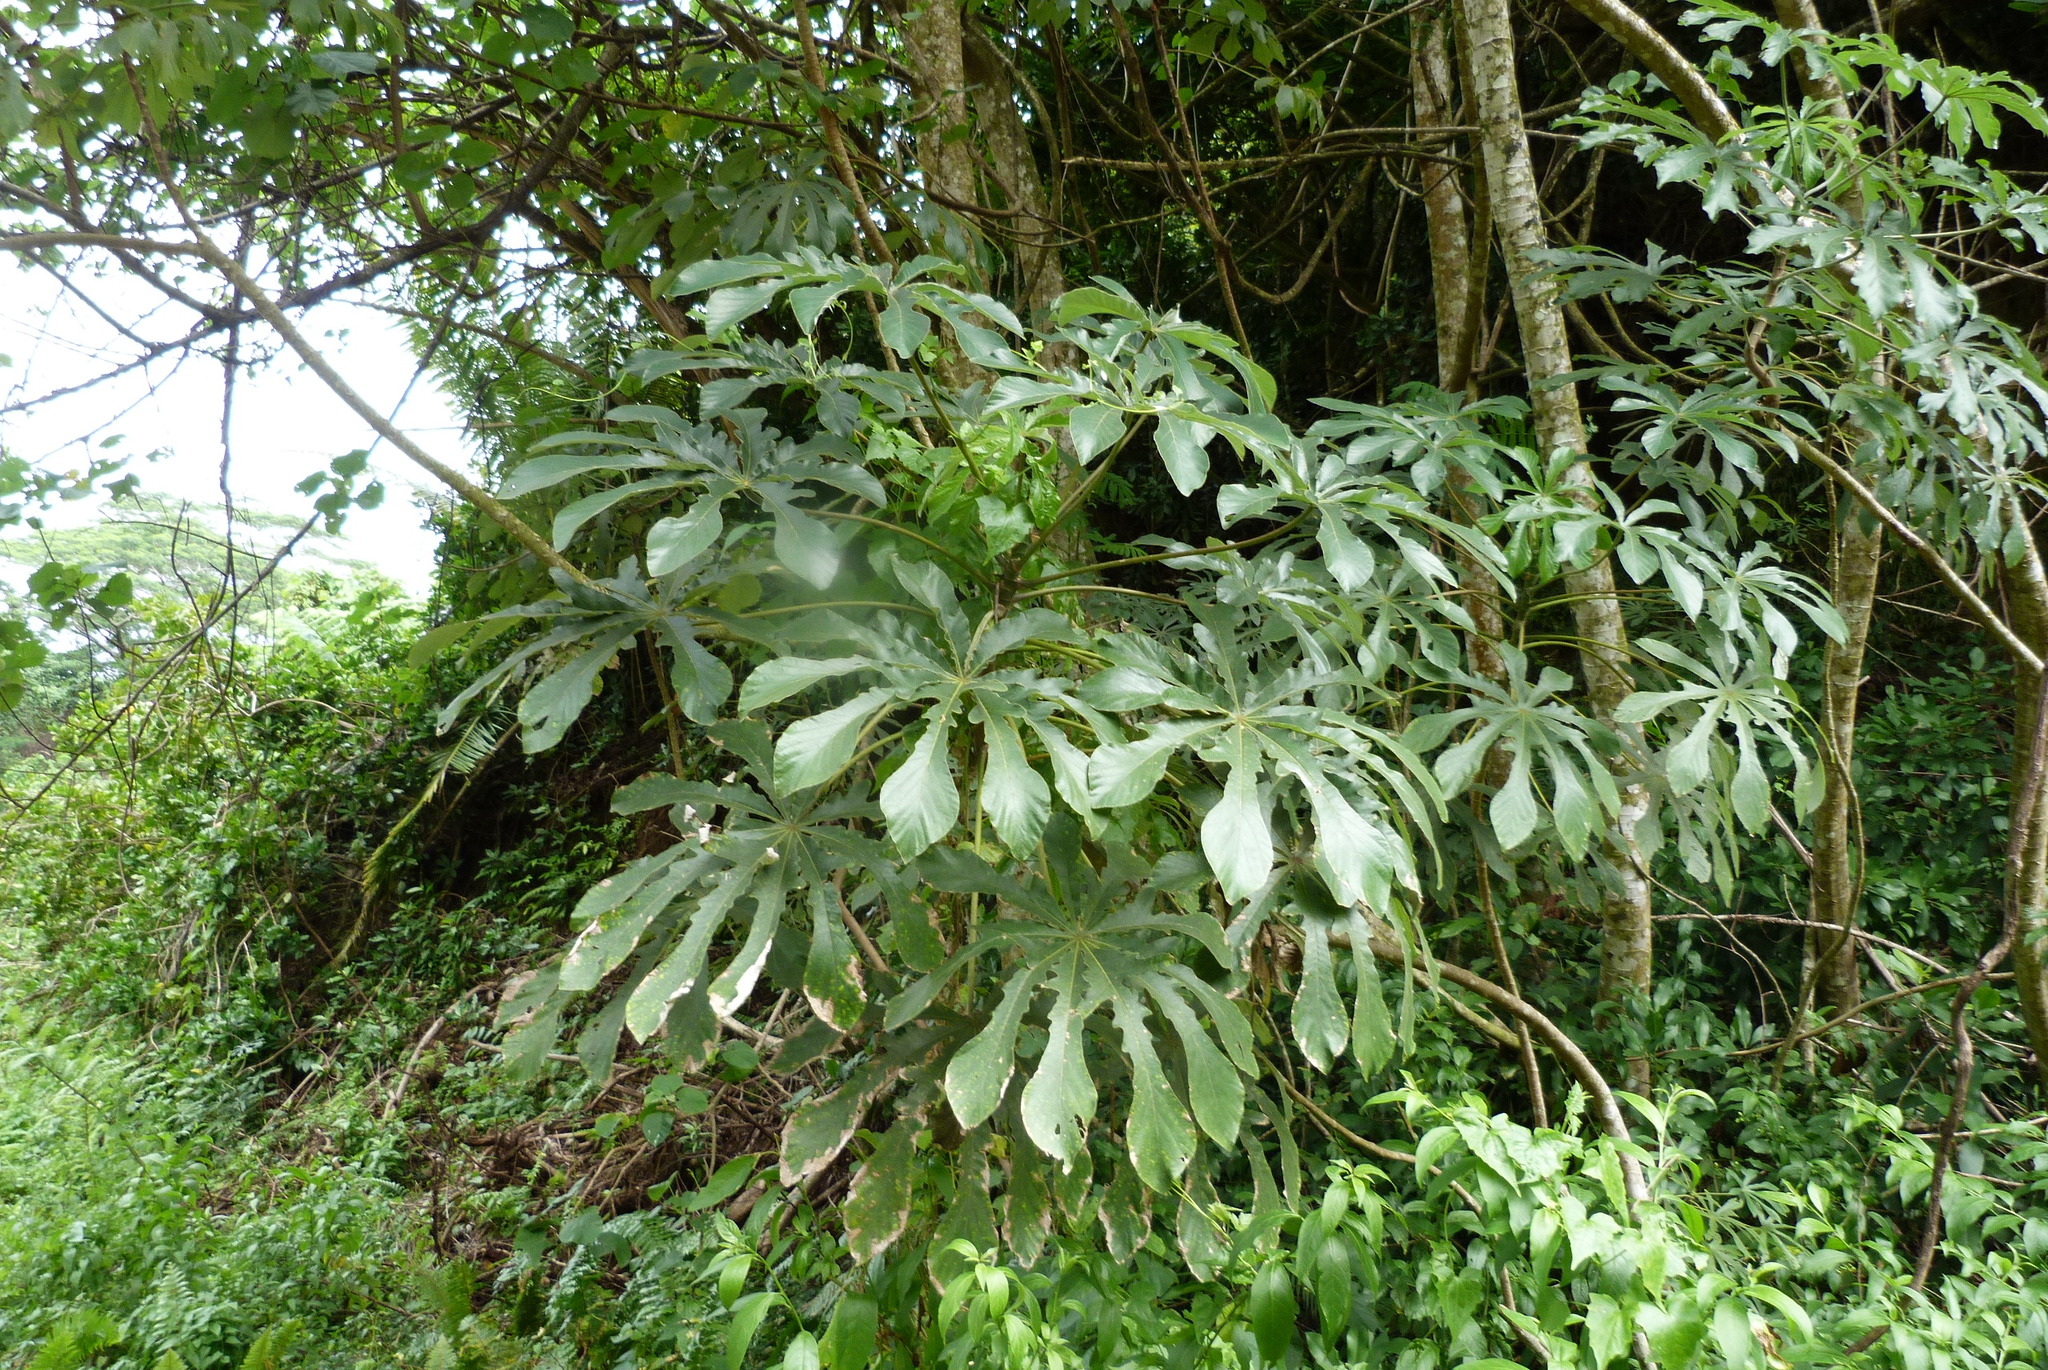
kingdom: Plantae
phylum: Tracheophyta
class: Magnoliopsida
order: Rosales
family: Urticaceae
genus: Cecropia
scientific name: Cecropia pachystachya
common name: Ambay pumpwood
